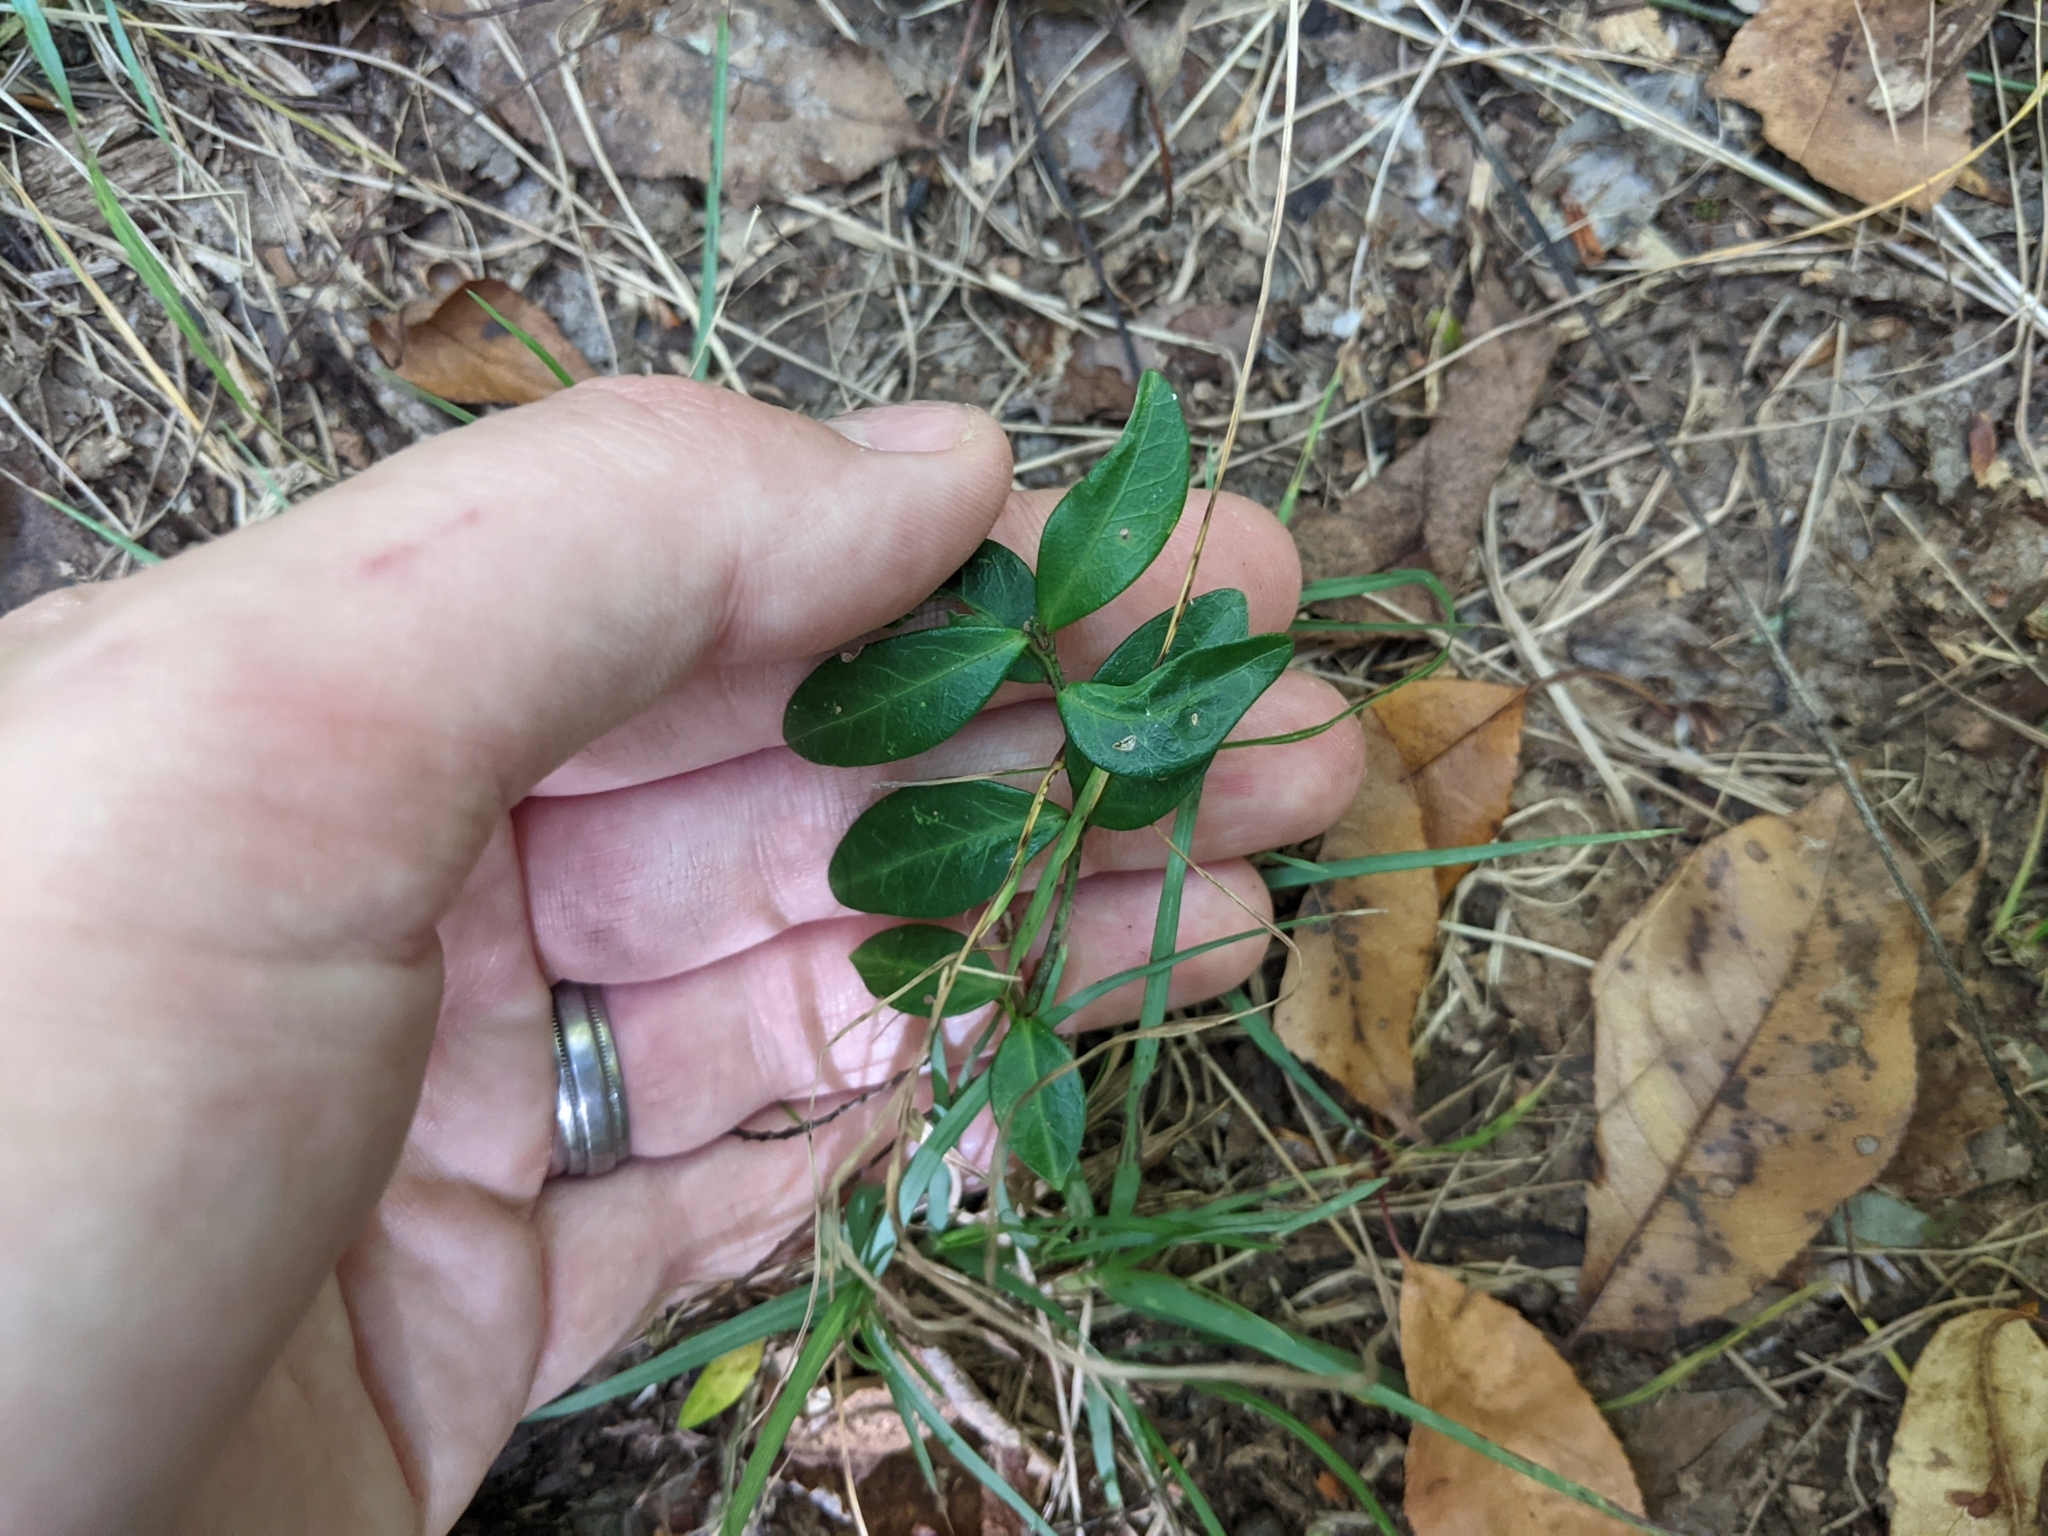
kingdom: Plantae
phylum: Tracheophyta
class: Magnoliopsida
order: Gentianales
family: Apocynaceae
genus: Vinca
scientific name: Vinca minor
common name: Lesser periwinkle
